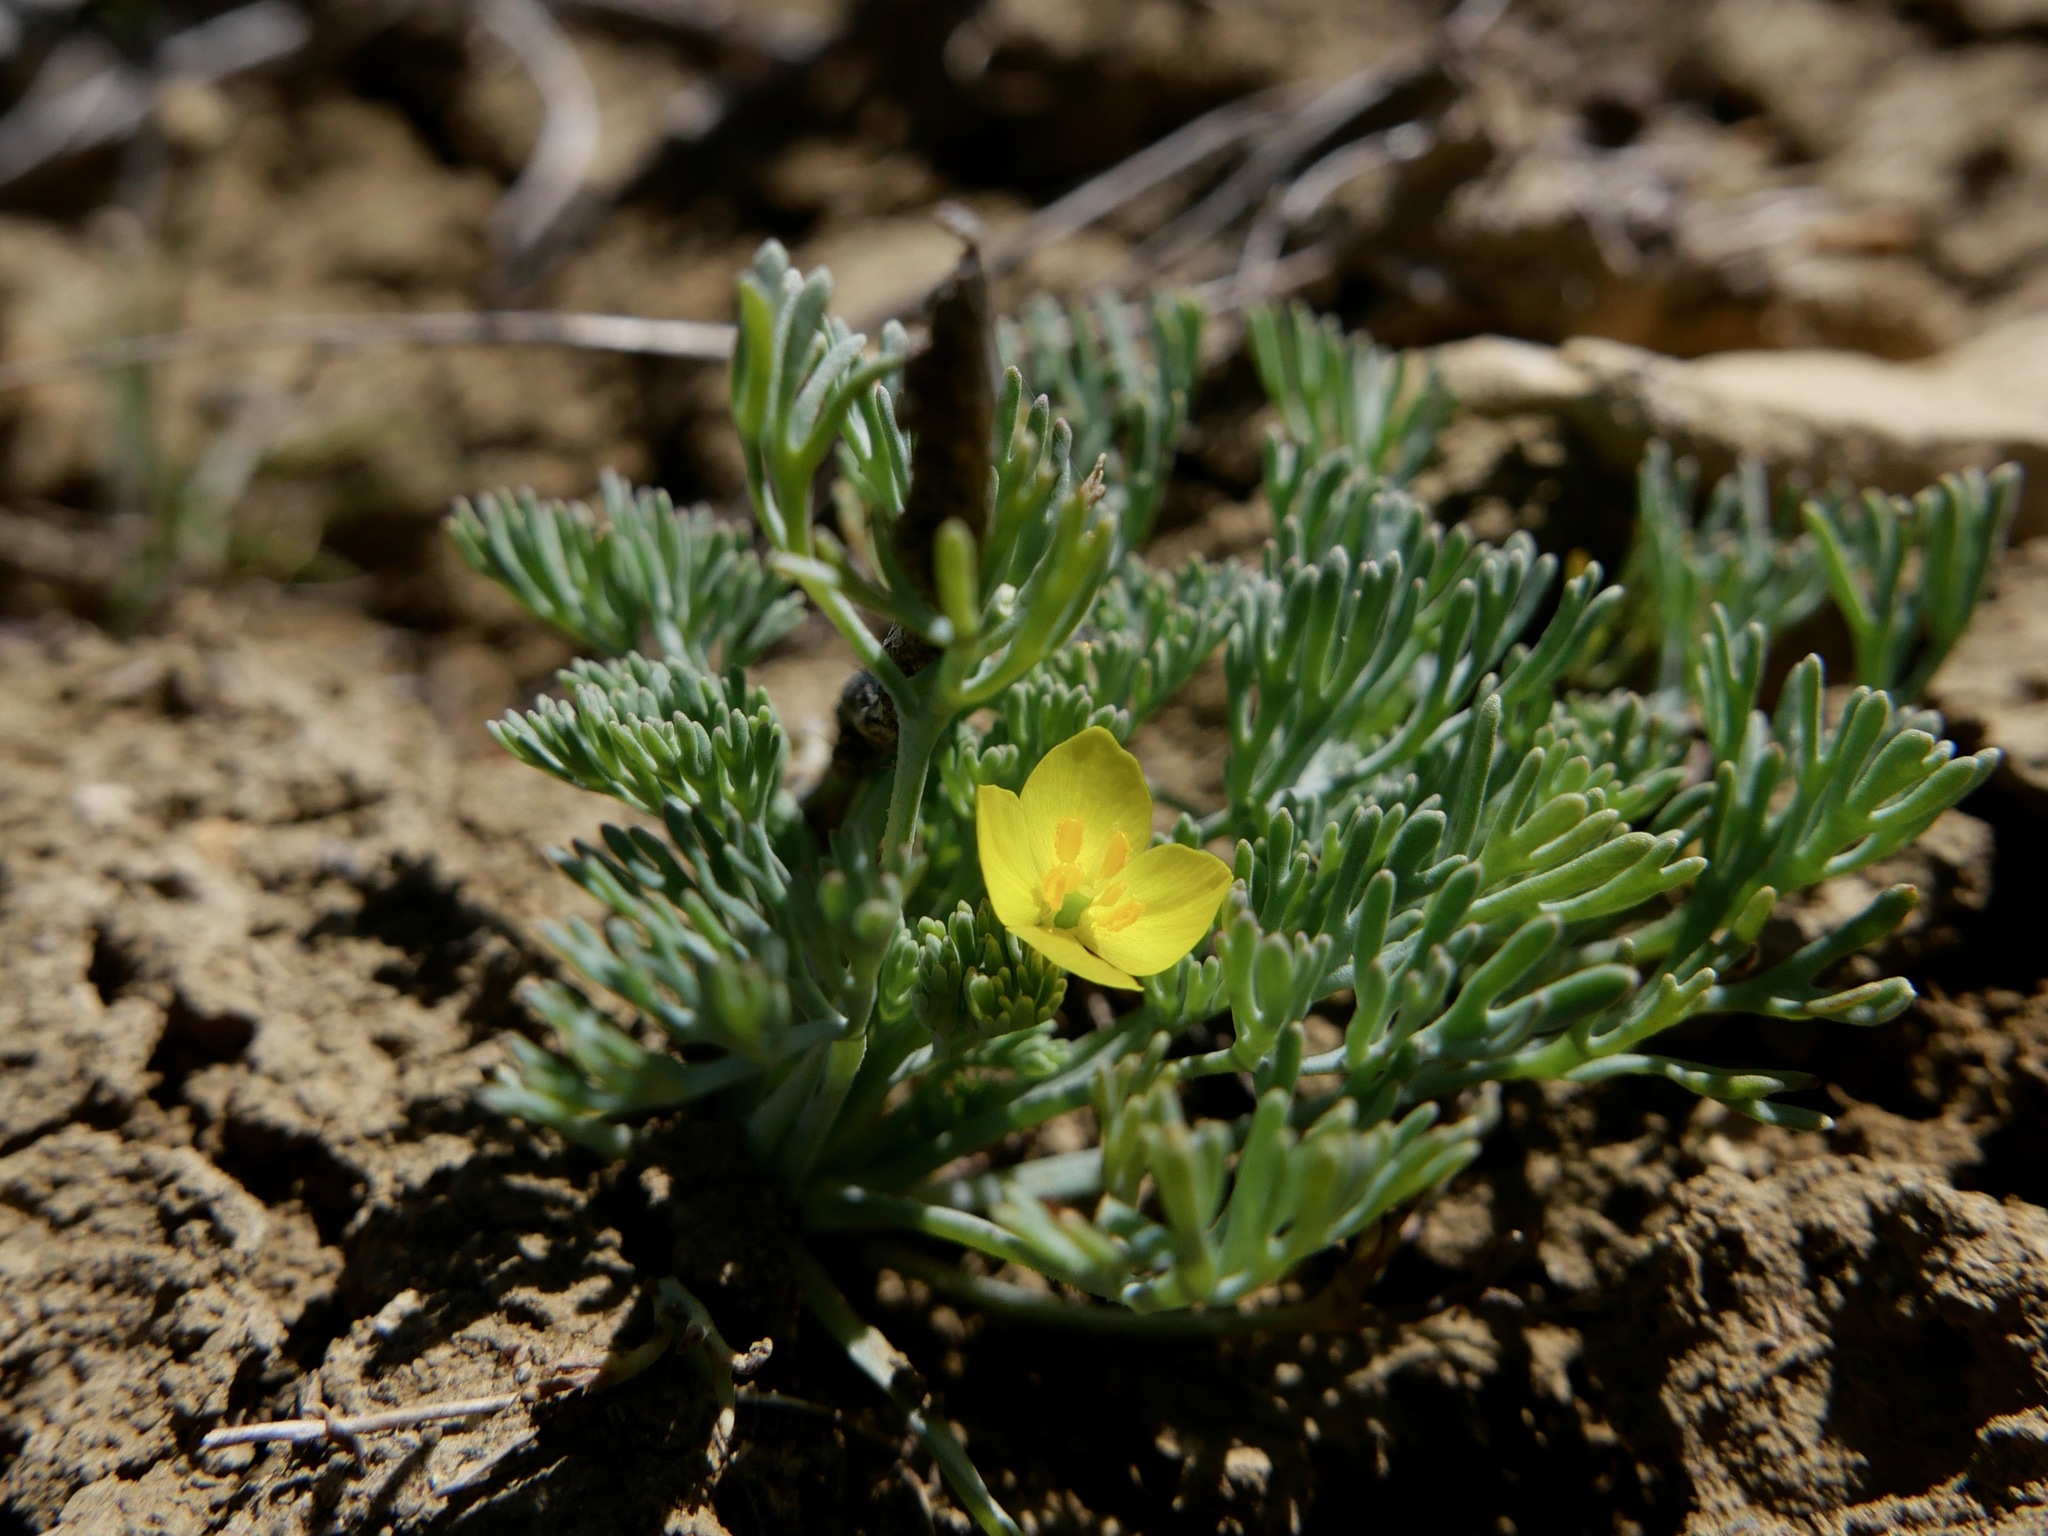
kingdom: Plantae
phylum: Tracheophyta
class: Magnoliopsida
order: Ranunculales
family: Papaveraceae
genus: Eschscholzia
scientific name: Eschscholzia rhombipetala
